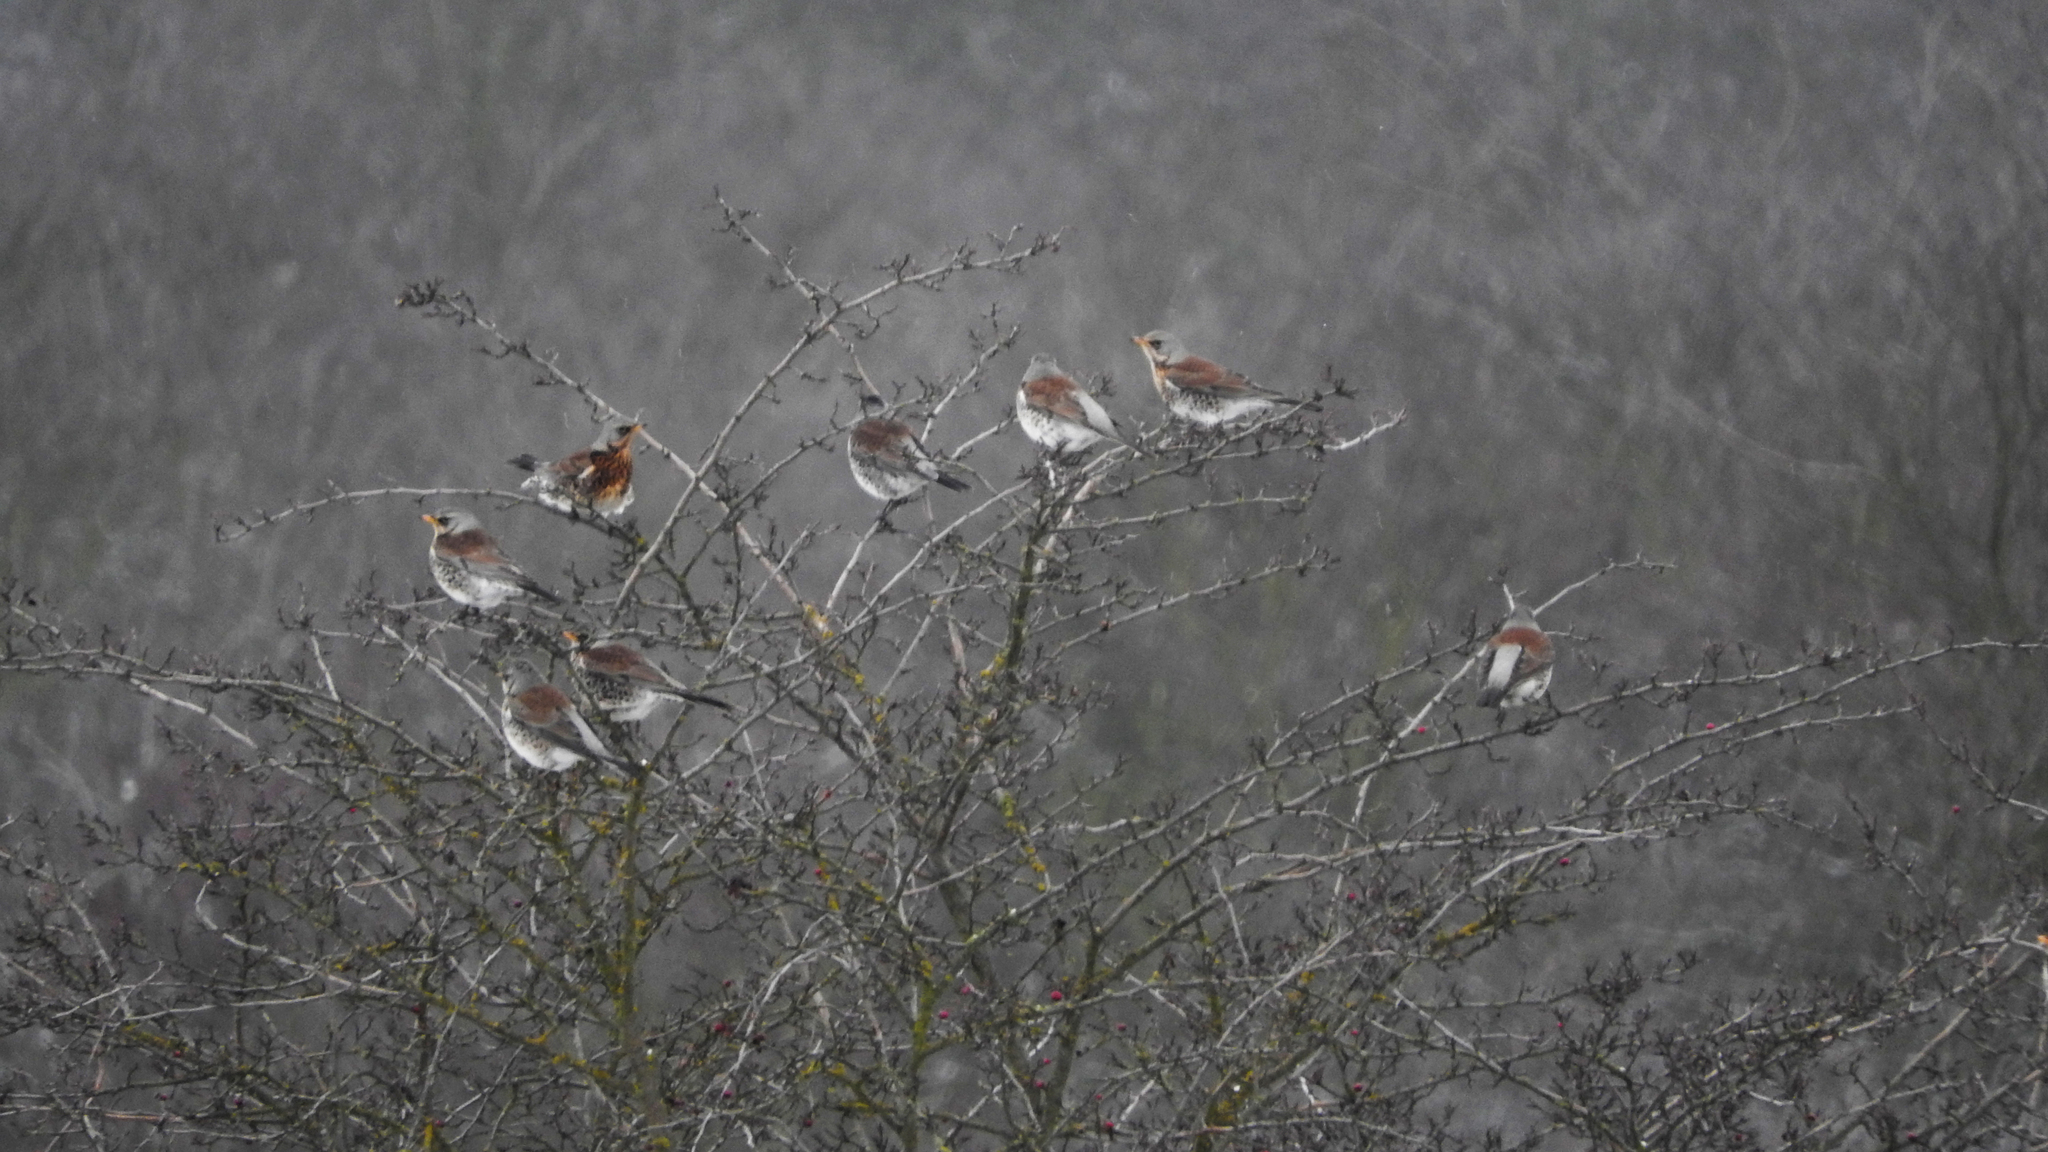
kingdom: Animalia
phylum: Chordata
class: Aves
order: Passeriformes
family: Turdidae
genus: Turdus
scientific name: Turdus pilaris
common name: Fieldfare
